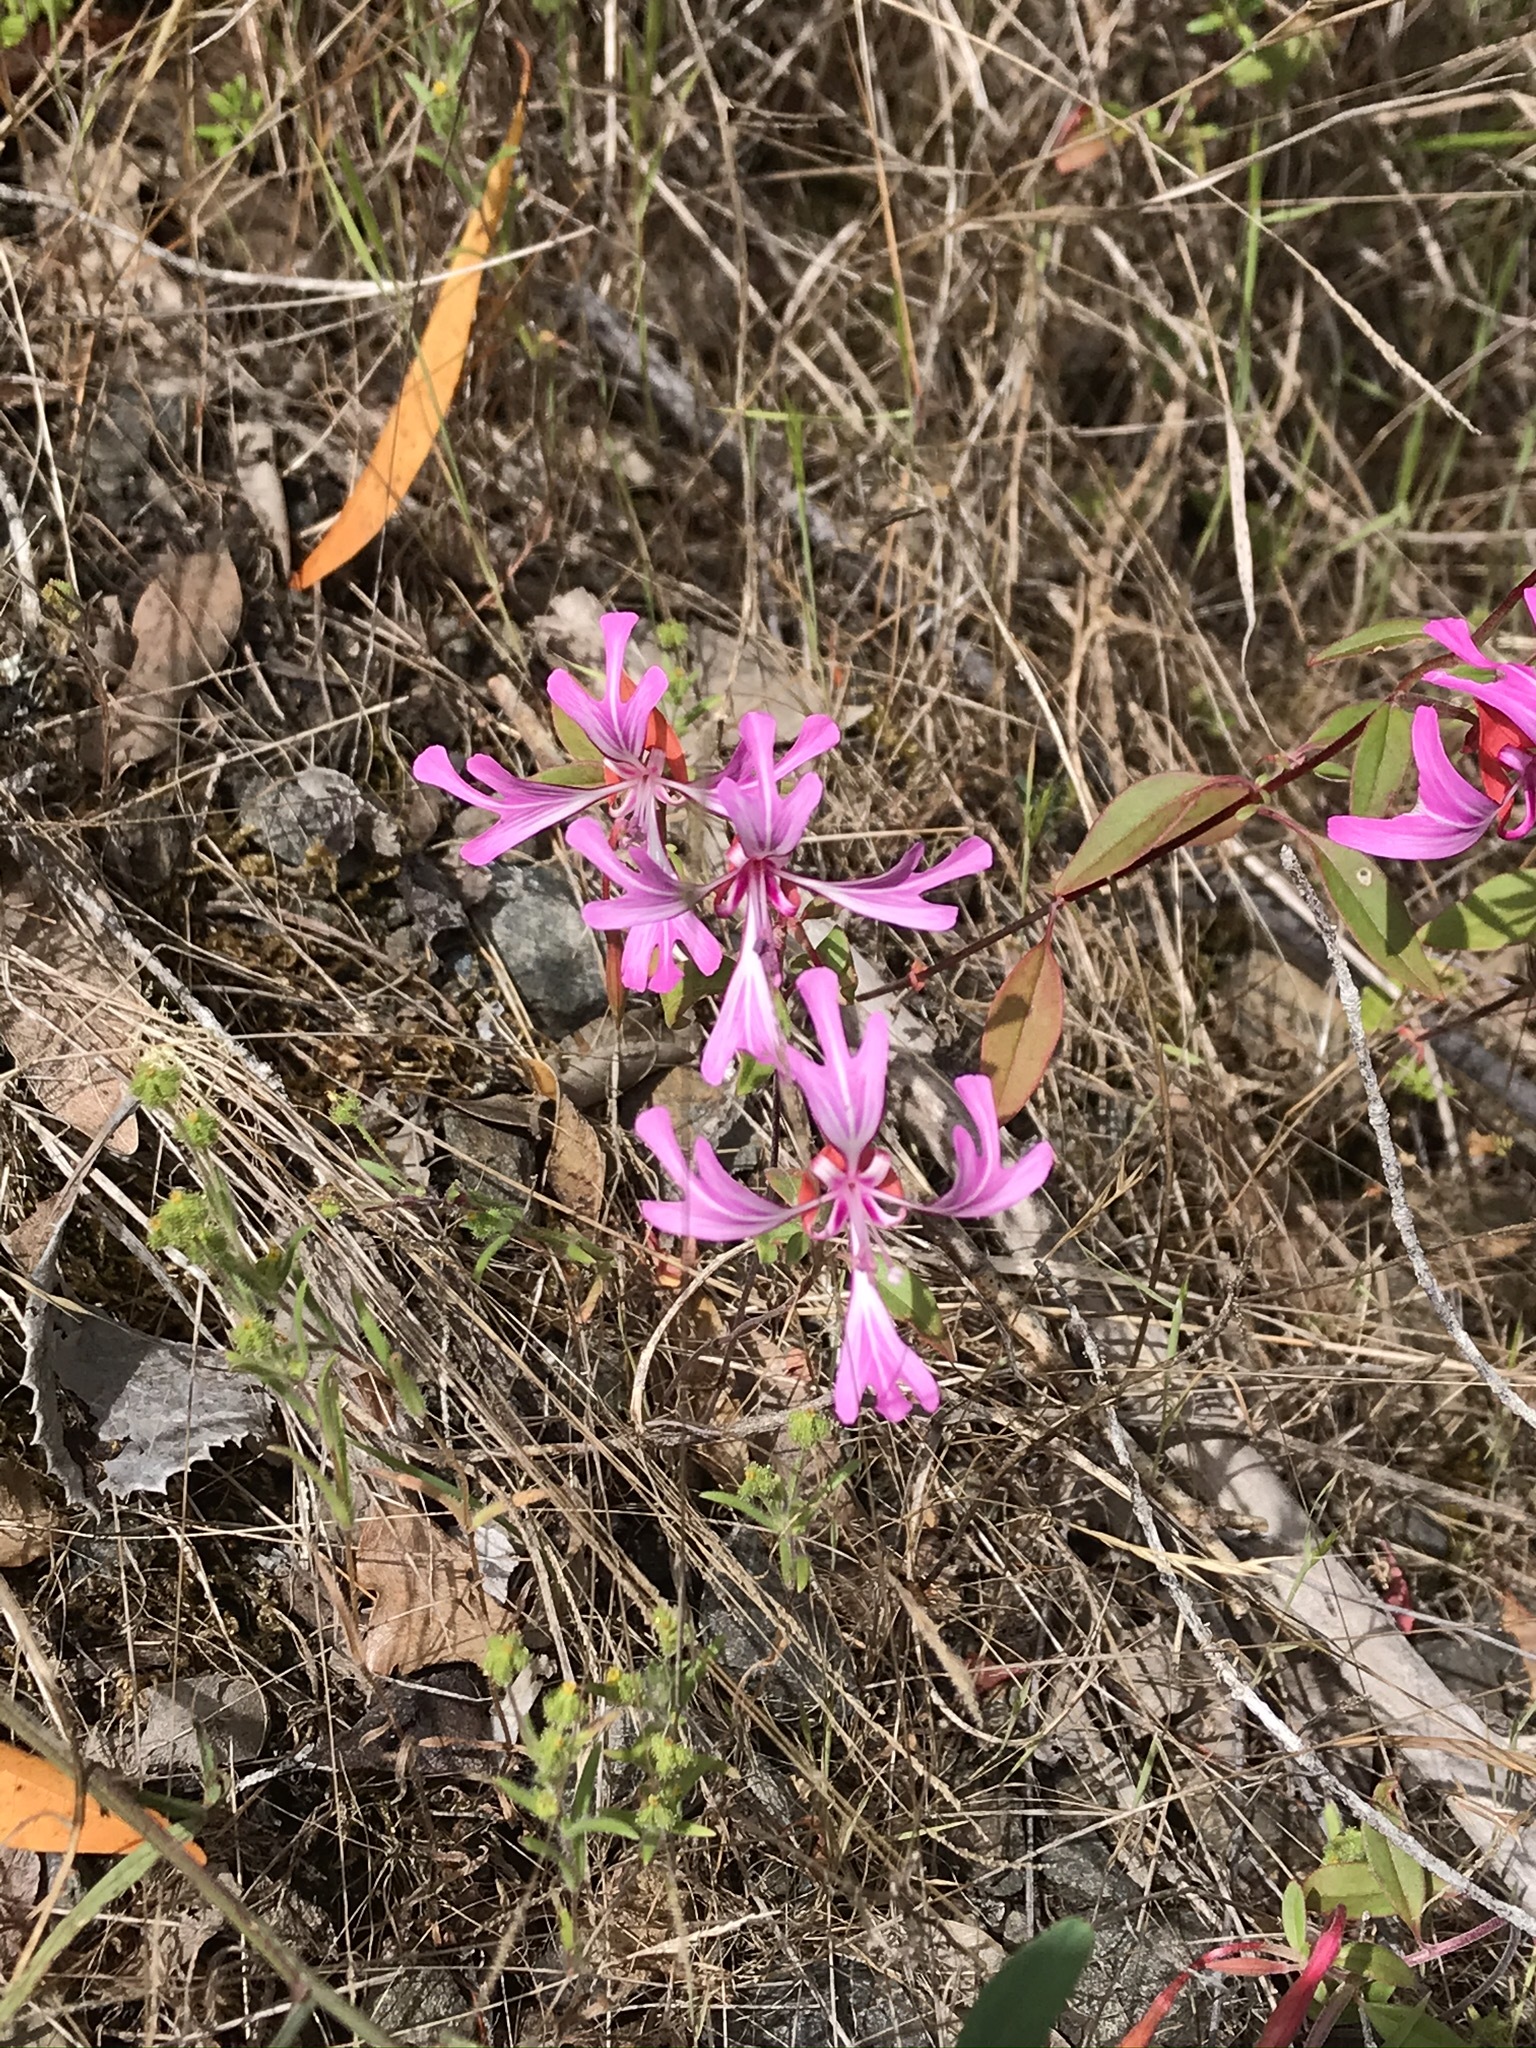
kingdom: Plantae
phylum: Tracheophyta
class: Magnoliopsida
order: Myrtales
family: Onagraceae
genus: Clarkia
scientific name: Clarkia concinna
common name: Red-ribbons
